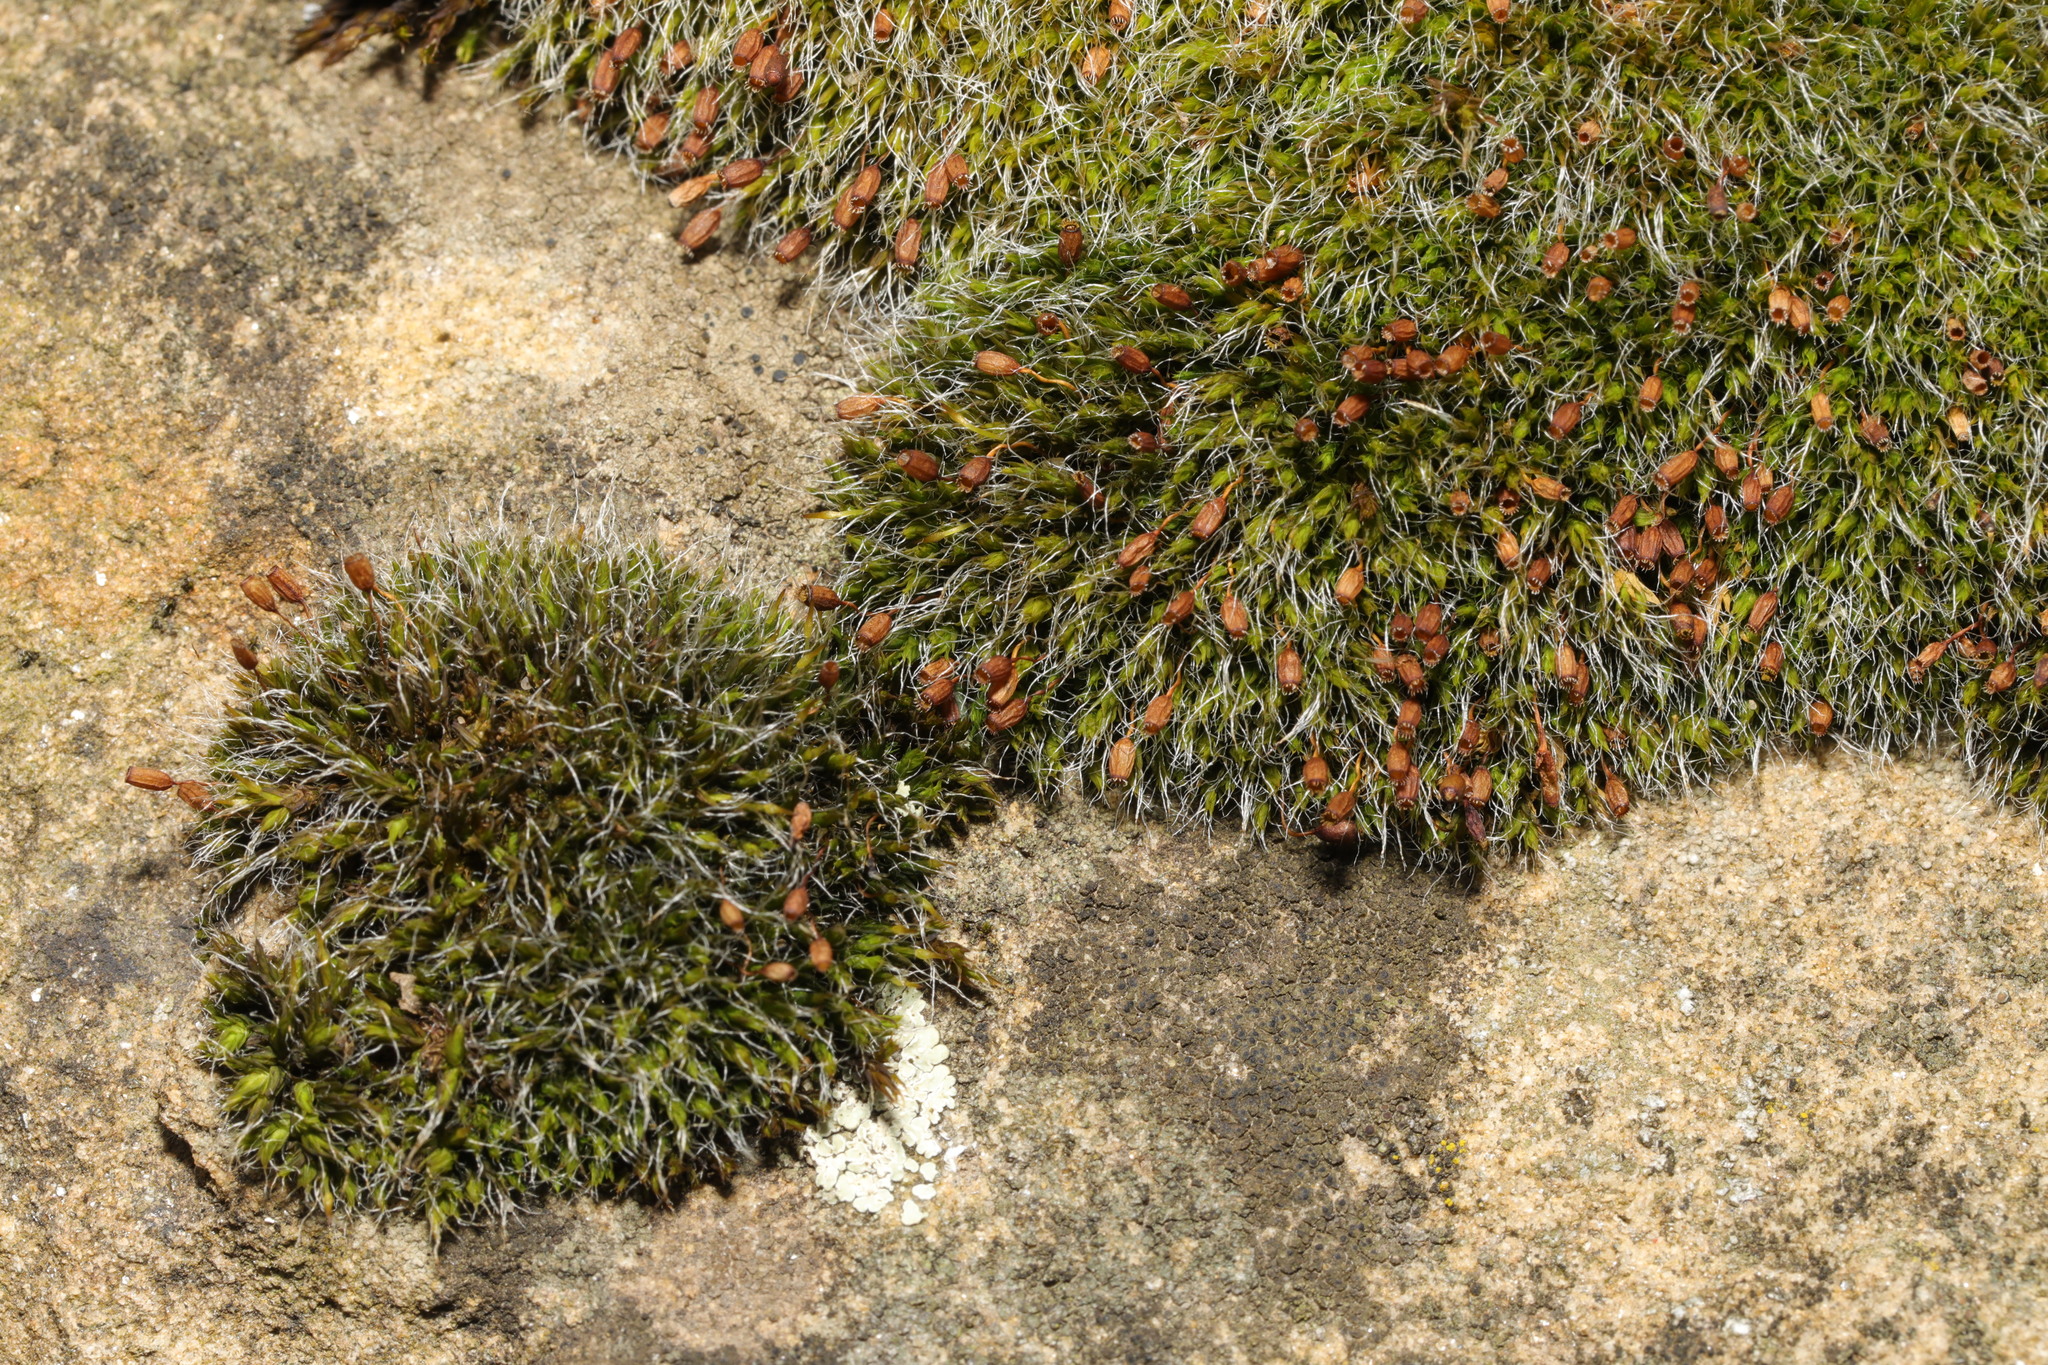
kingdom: Plantae
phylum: Bryophyta
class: Bryopsida
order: Grimmiales
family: Grimmiaceae
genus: Grimmia
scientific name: Grimmia pulvinata
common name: Grey-cushioned grimmia
